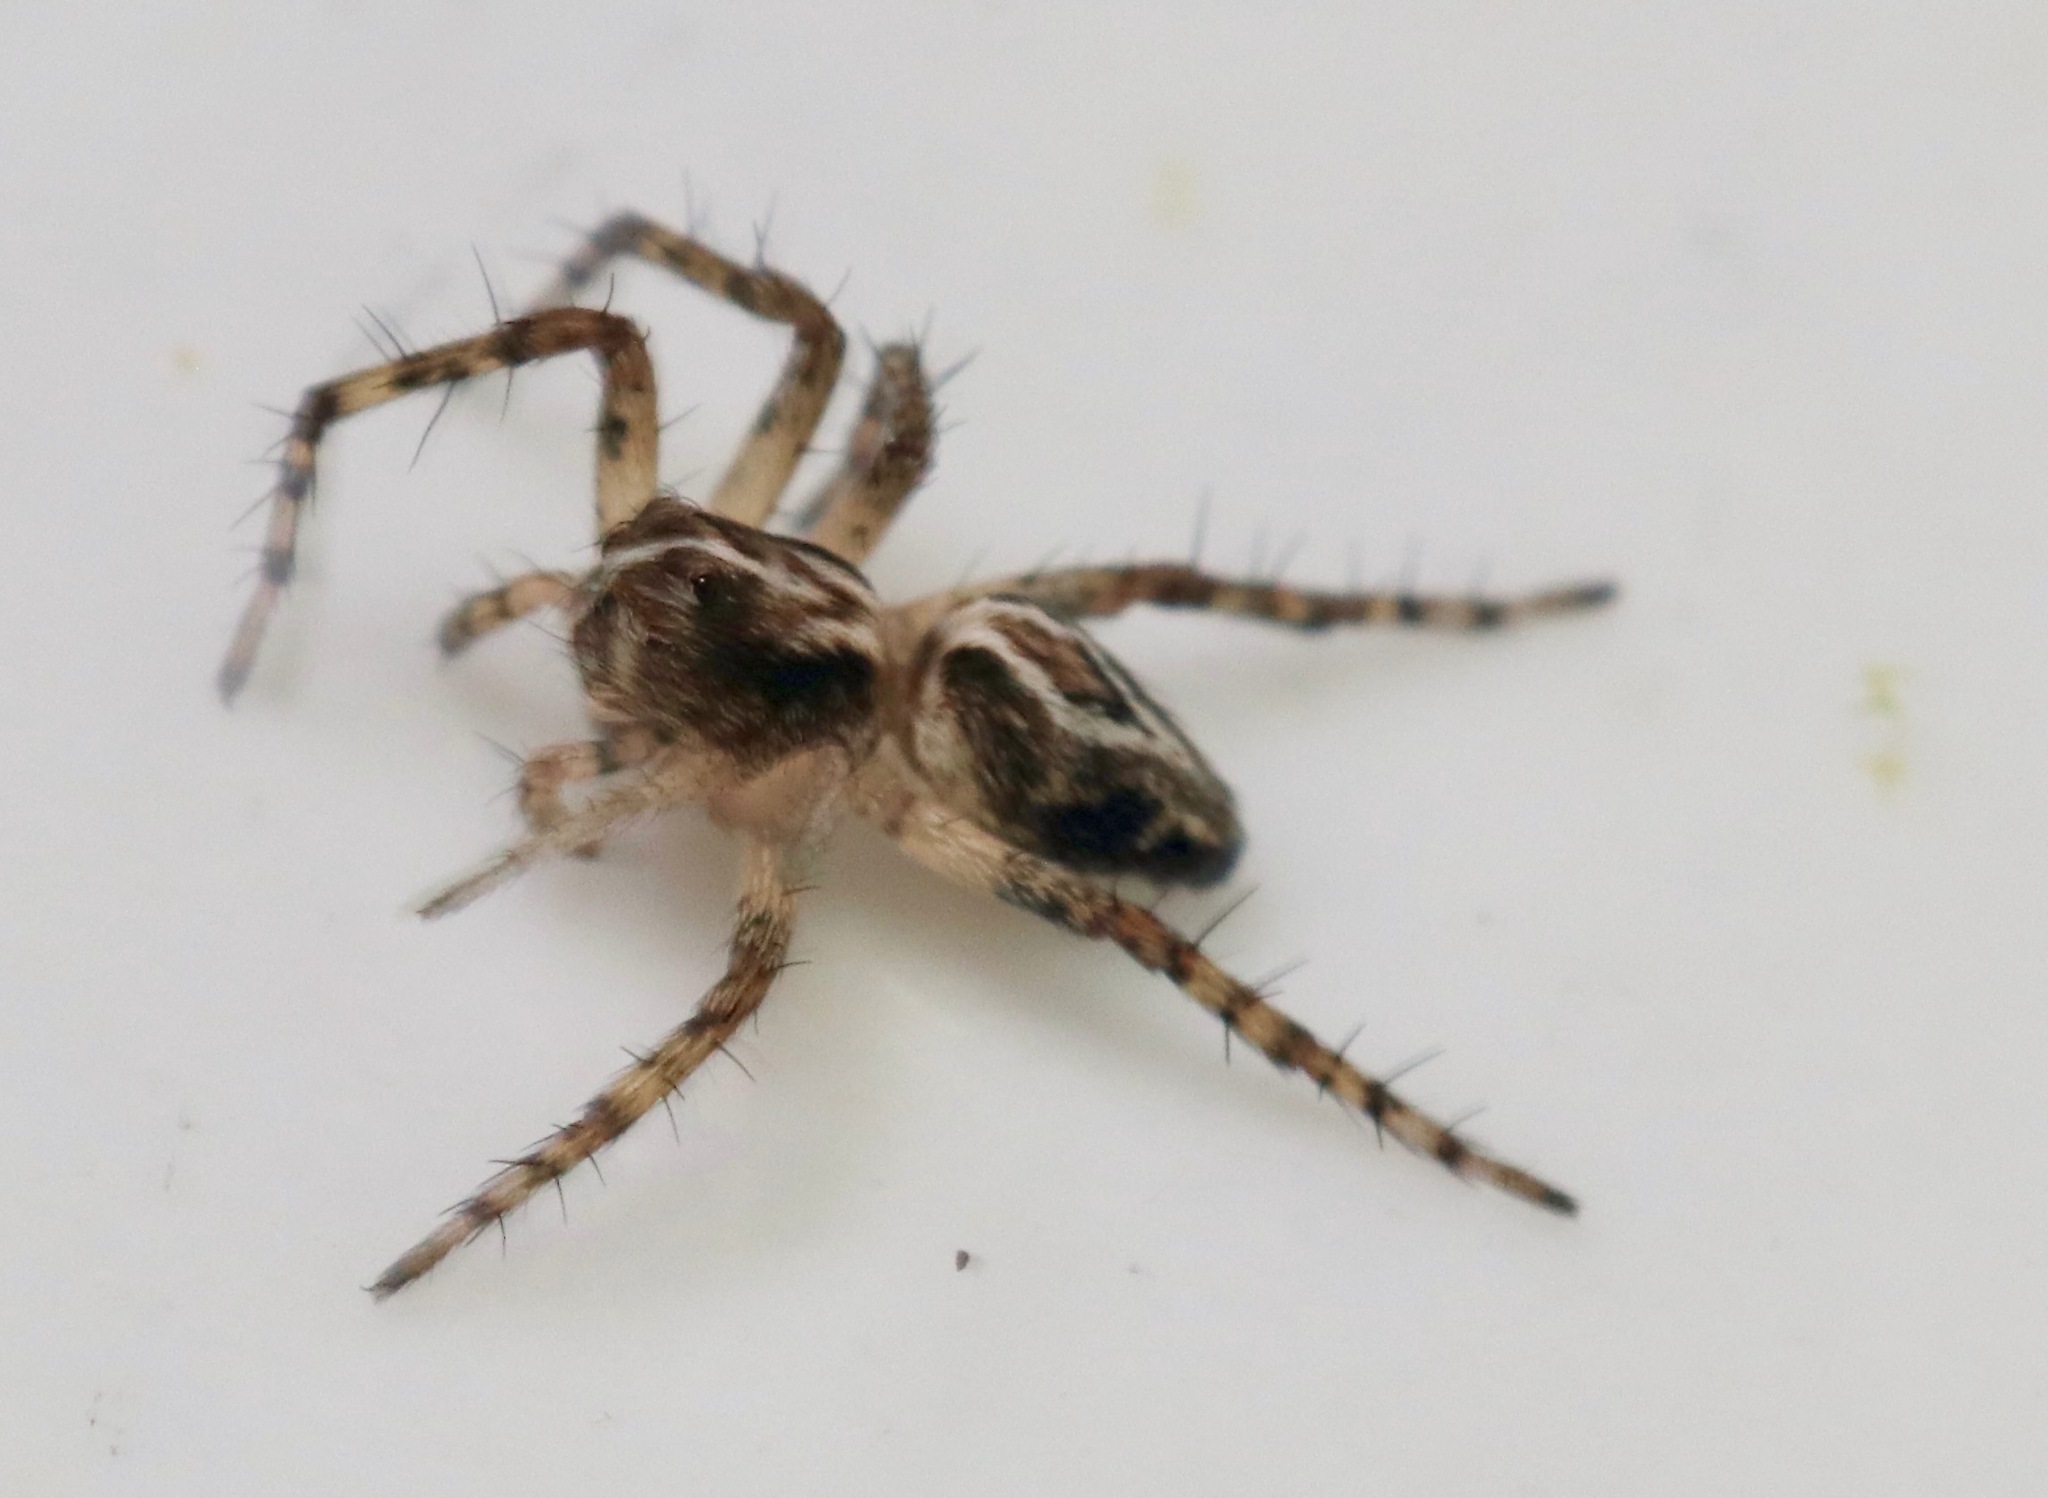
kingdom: Animalia
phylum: Arthropoda
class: Arachnida
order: Araneae
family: Oxyopidae
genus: Oxyopes
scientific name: Oxyopes scalaris
